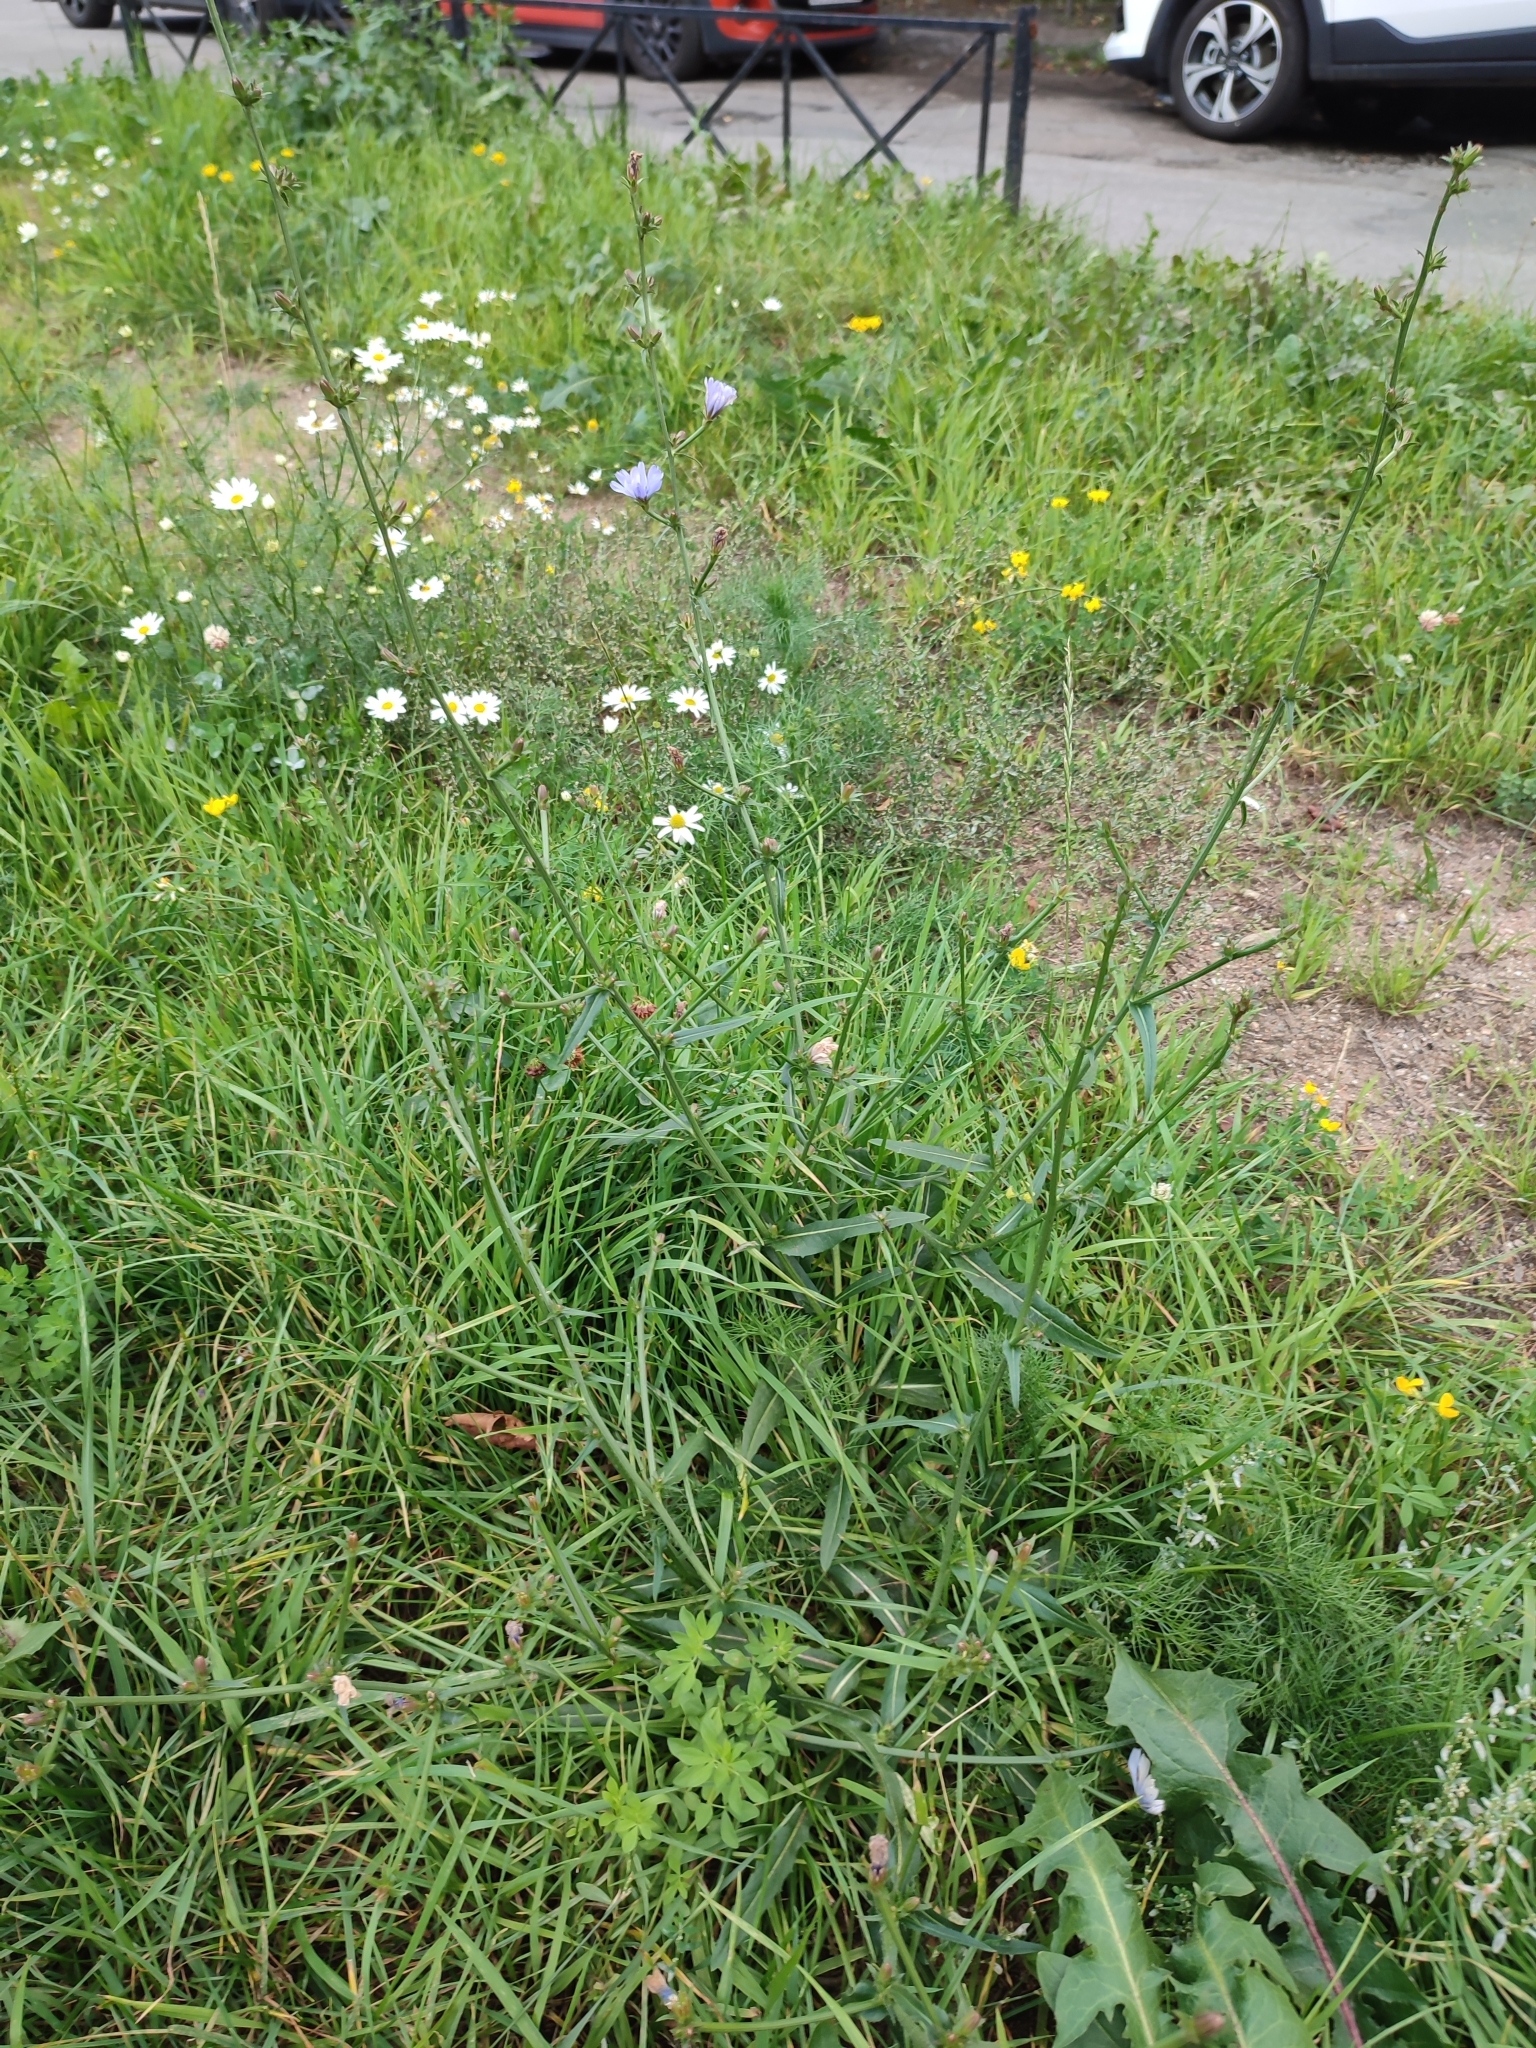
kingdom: Plantae
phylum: Tracheophyta
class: Magnoliopsida
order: Asterales
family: Asteraceae
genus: Cichorium
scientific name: Cichorium intybus
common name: Chicory
